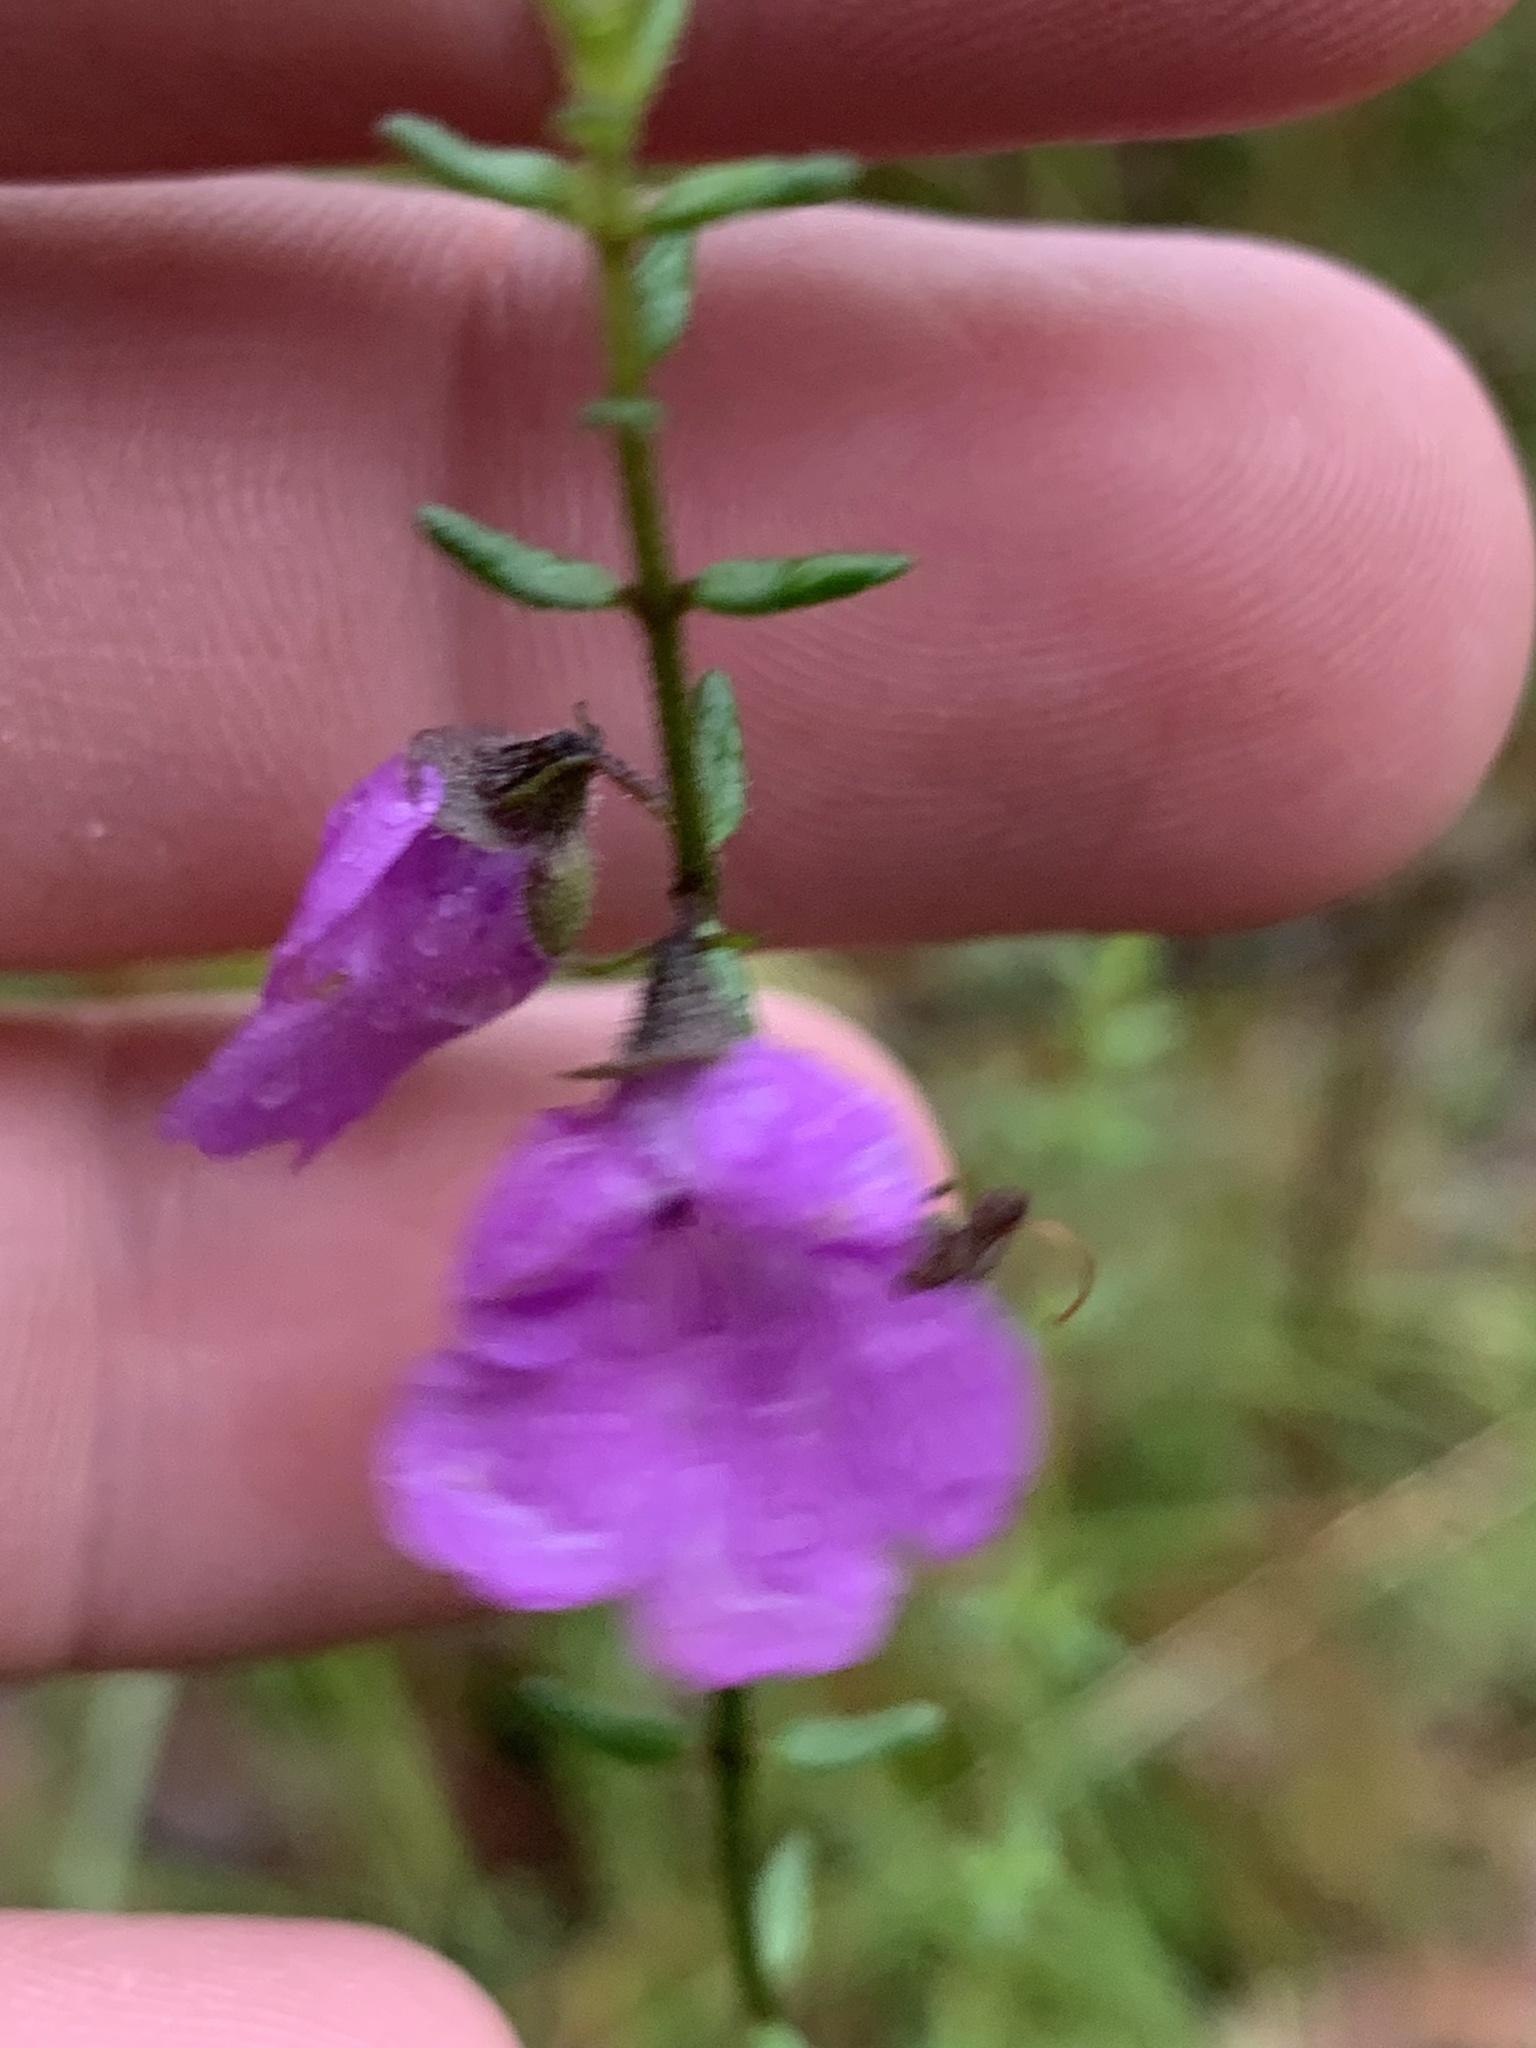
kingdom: Plantae
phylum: Tracheophyta
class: Magnoliopsida
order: Lamiales
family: Lamiaceae
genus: Prostanthera
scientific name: Prostanthera howelliae
